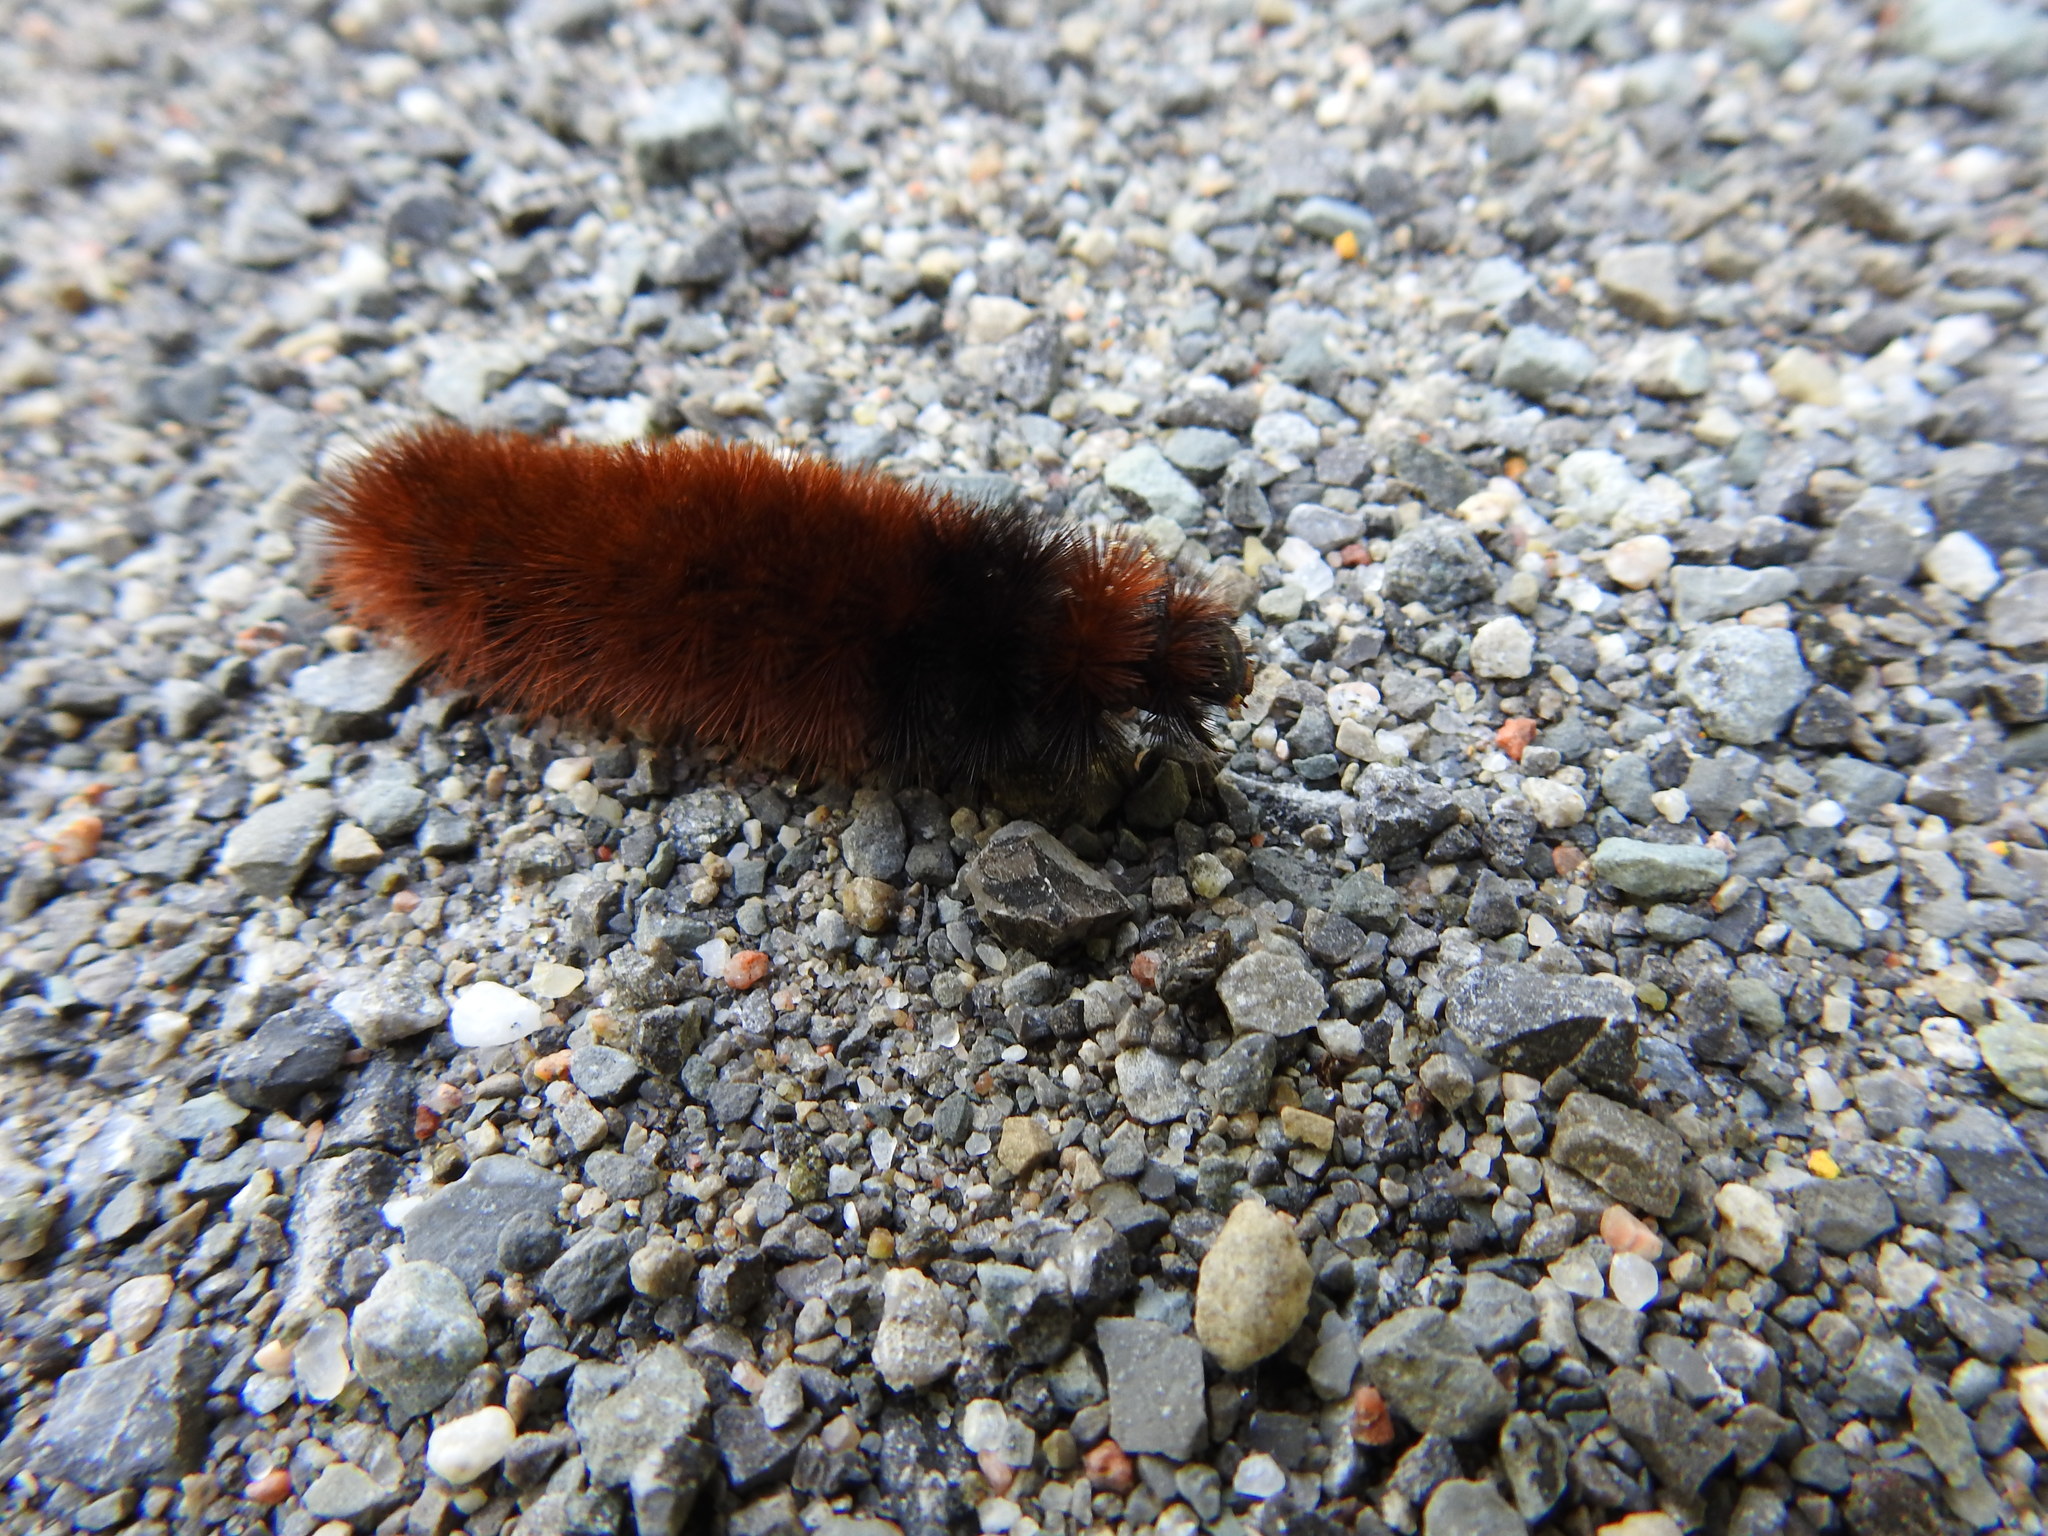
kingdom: Animalia
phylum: Arthropoda
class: Insecta
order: Lepidoptera
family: Erebidae
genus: Pyrrharctia
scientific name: Pyrrharctia isabella
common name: Isabella tiger moth
